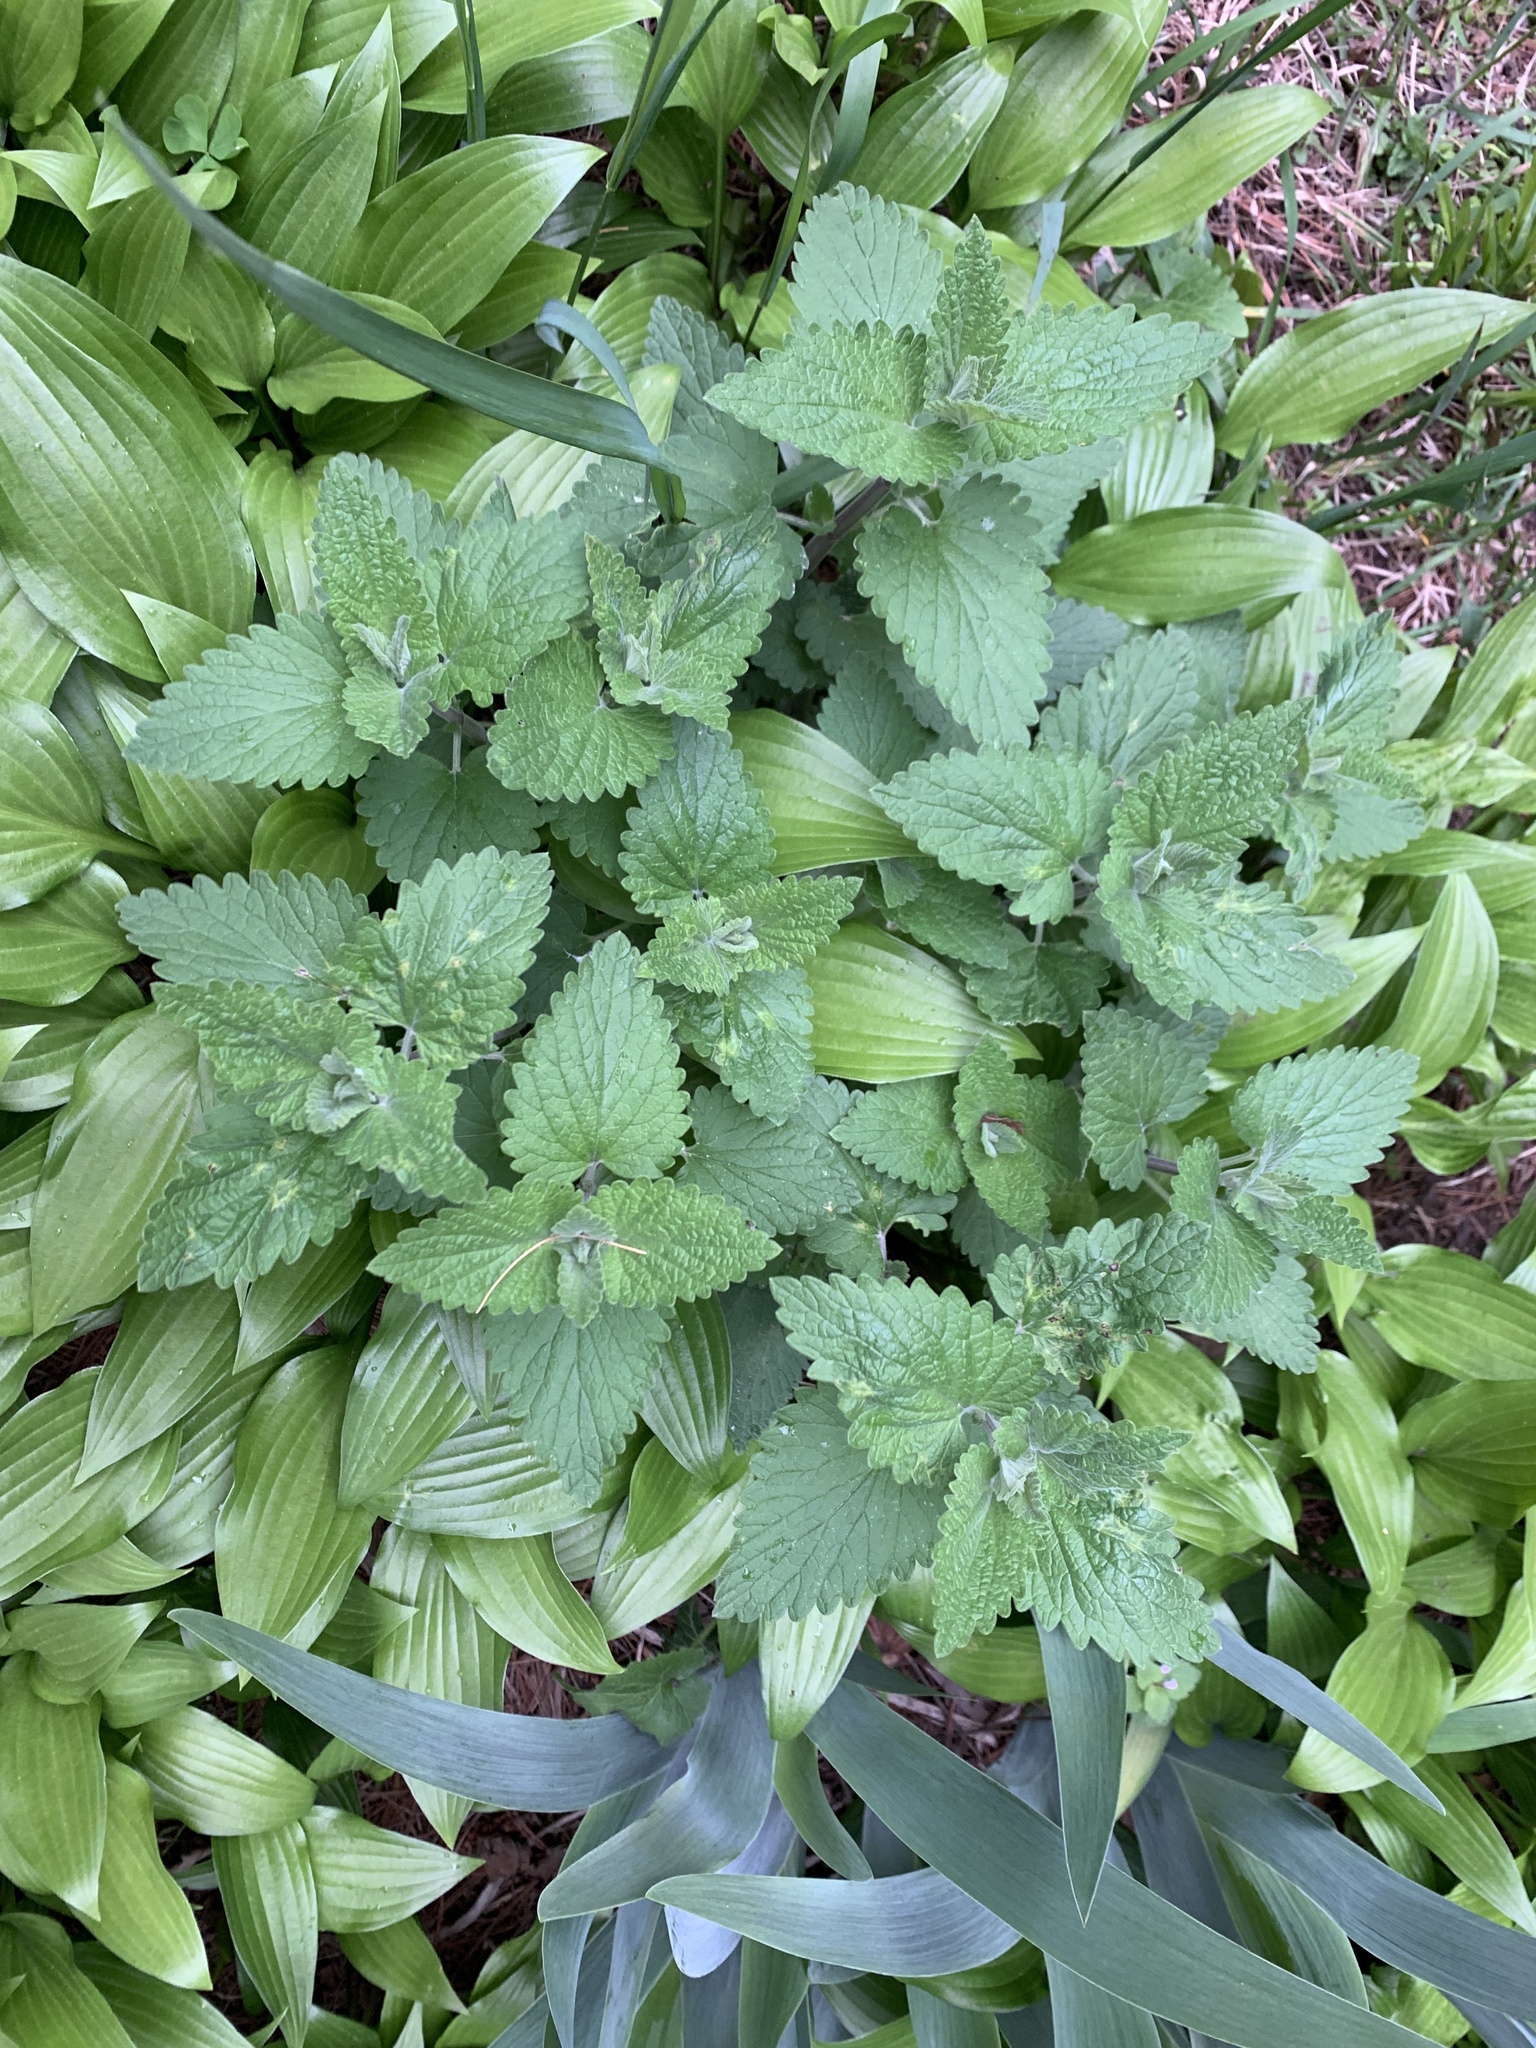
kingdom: Plantae
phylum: Tracheophyta
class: Magnoliopsida
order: Lamiales
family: Lamiaceae
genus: Nepeta
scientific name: Nepeta cataria
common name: Catnip
